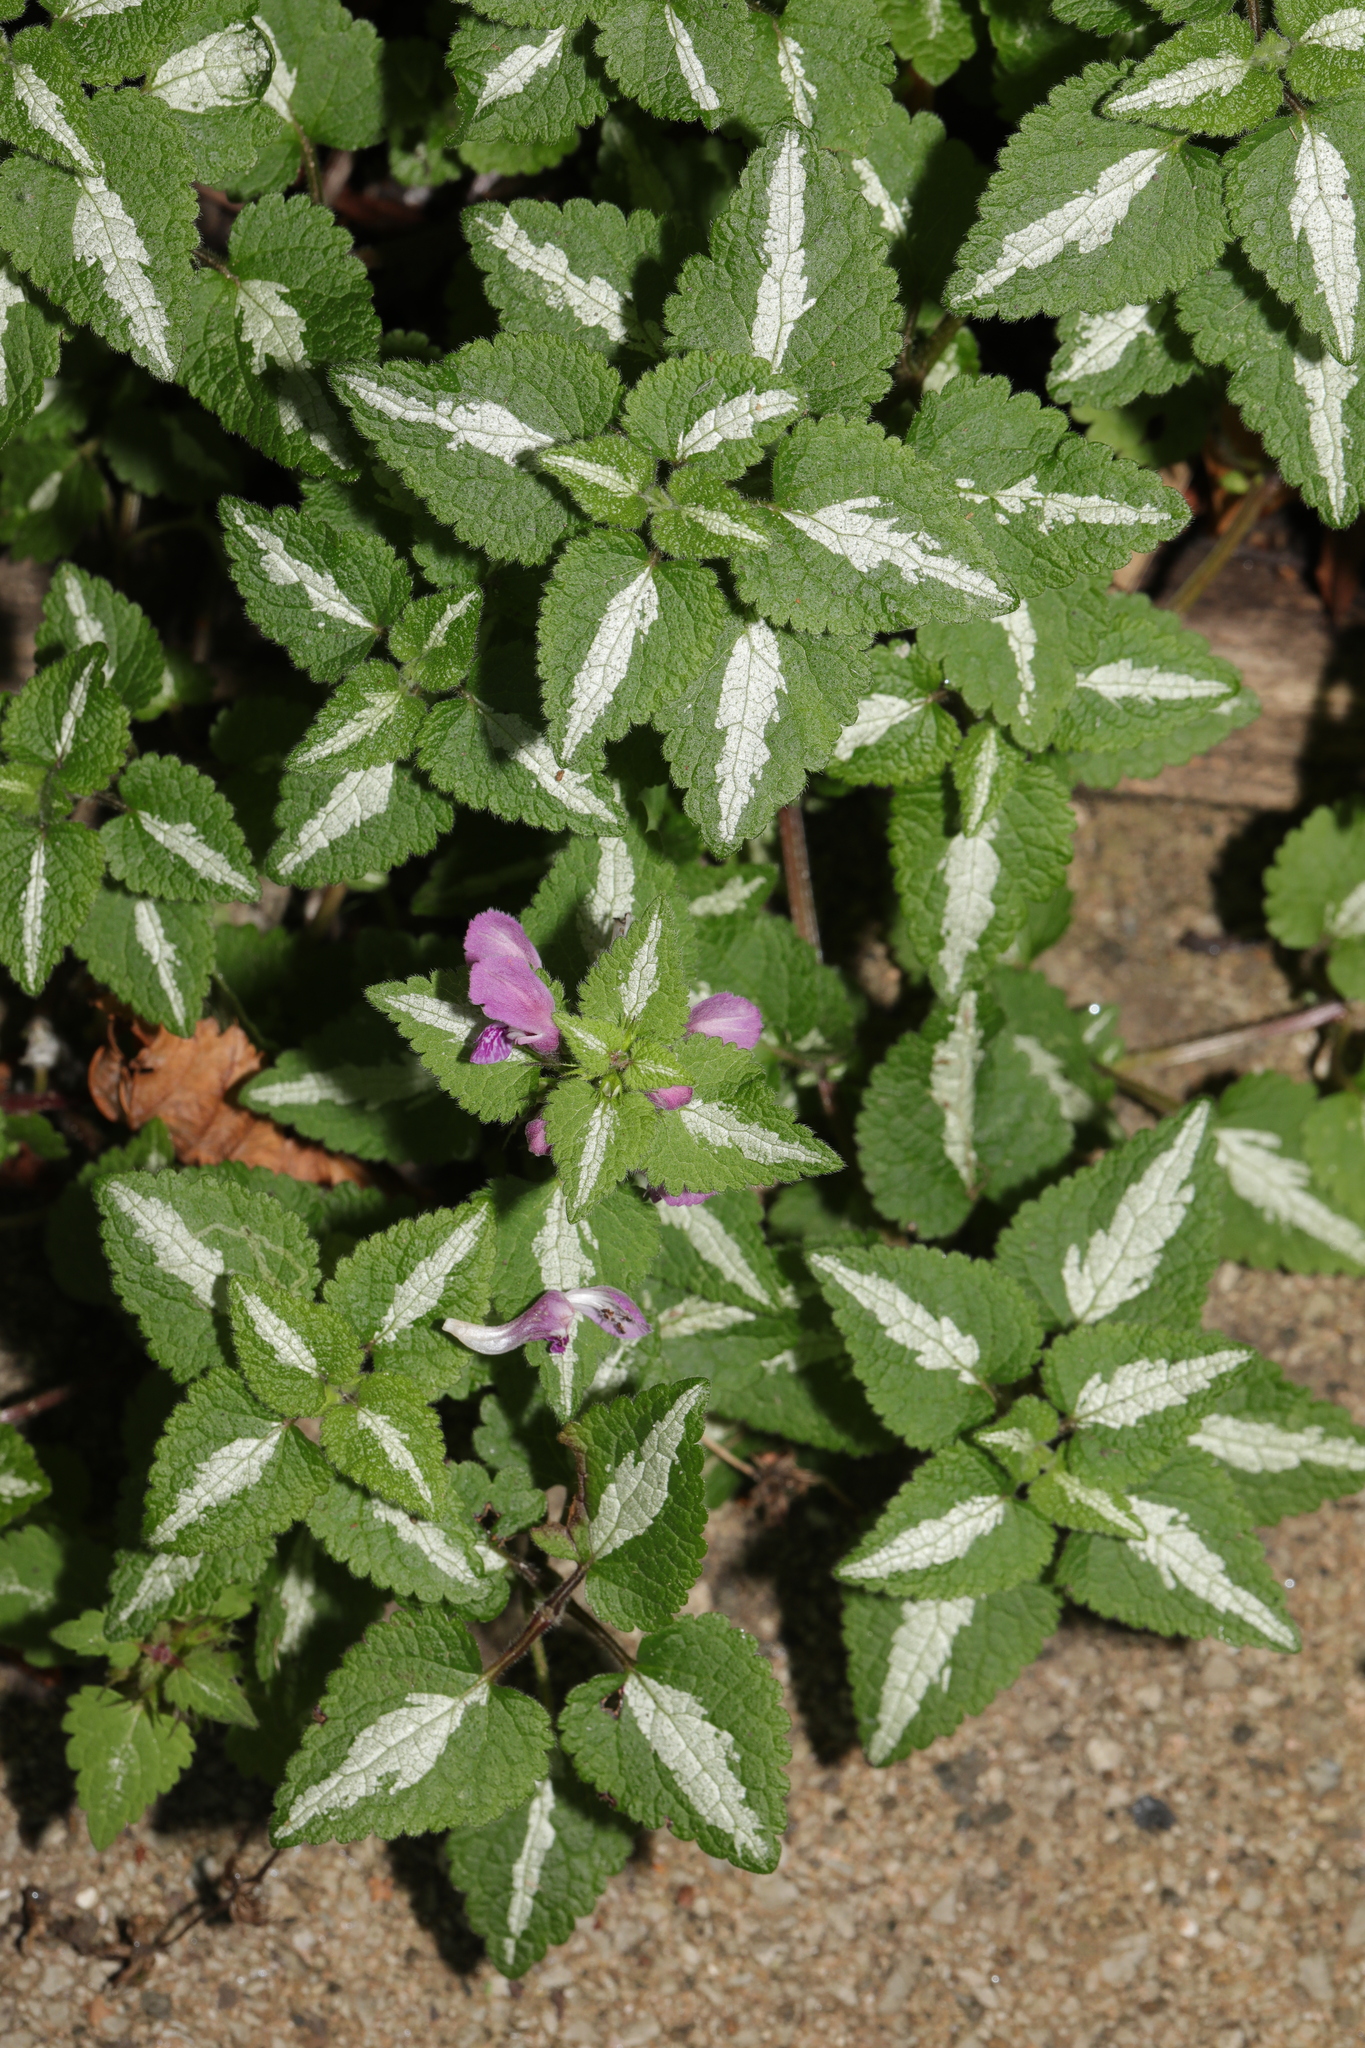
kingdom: Plantae
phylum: Tracheophyta
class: Magnoliopsida
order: Lamiales
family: Lamiaceae
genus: Lamium
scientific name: Lamium maculatum
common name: Spotted dead-nettle
